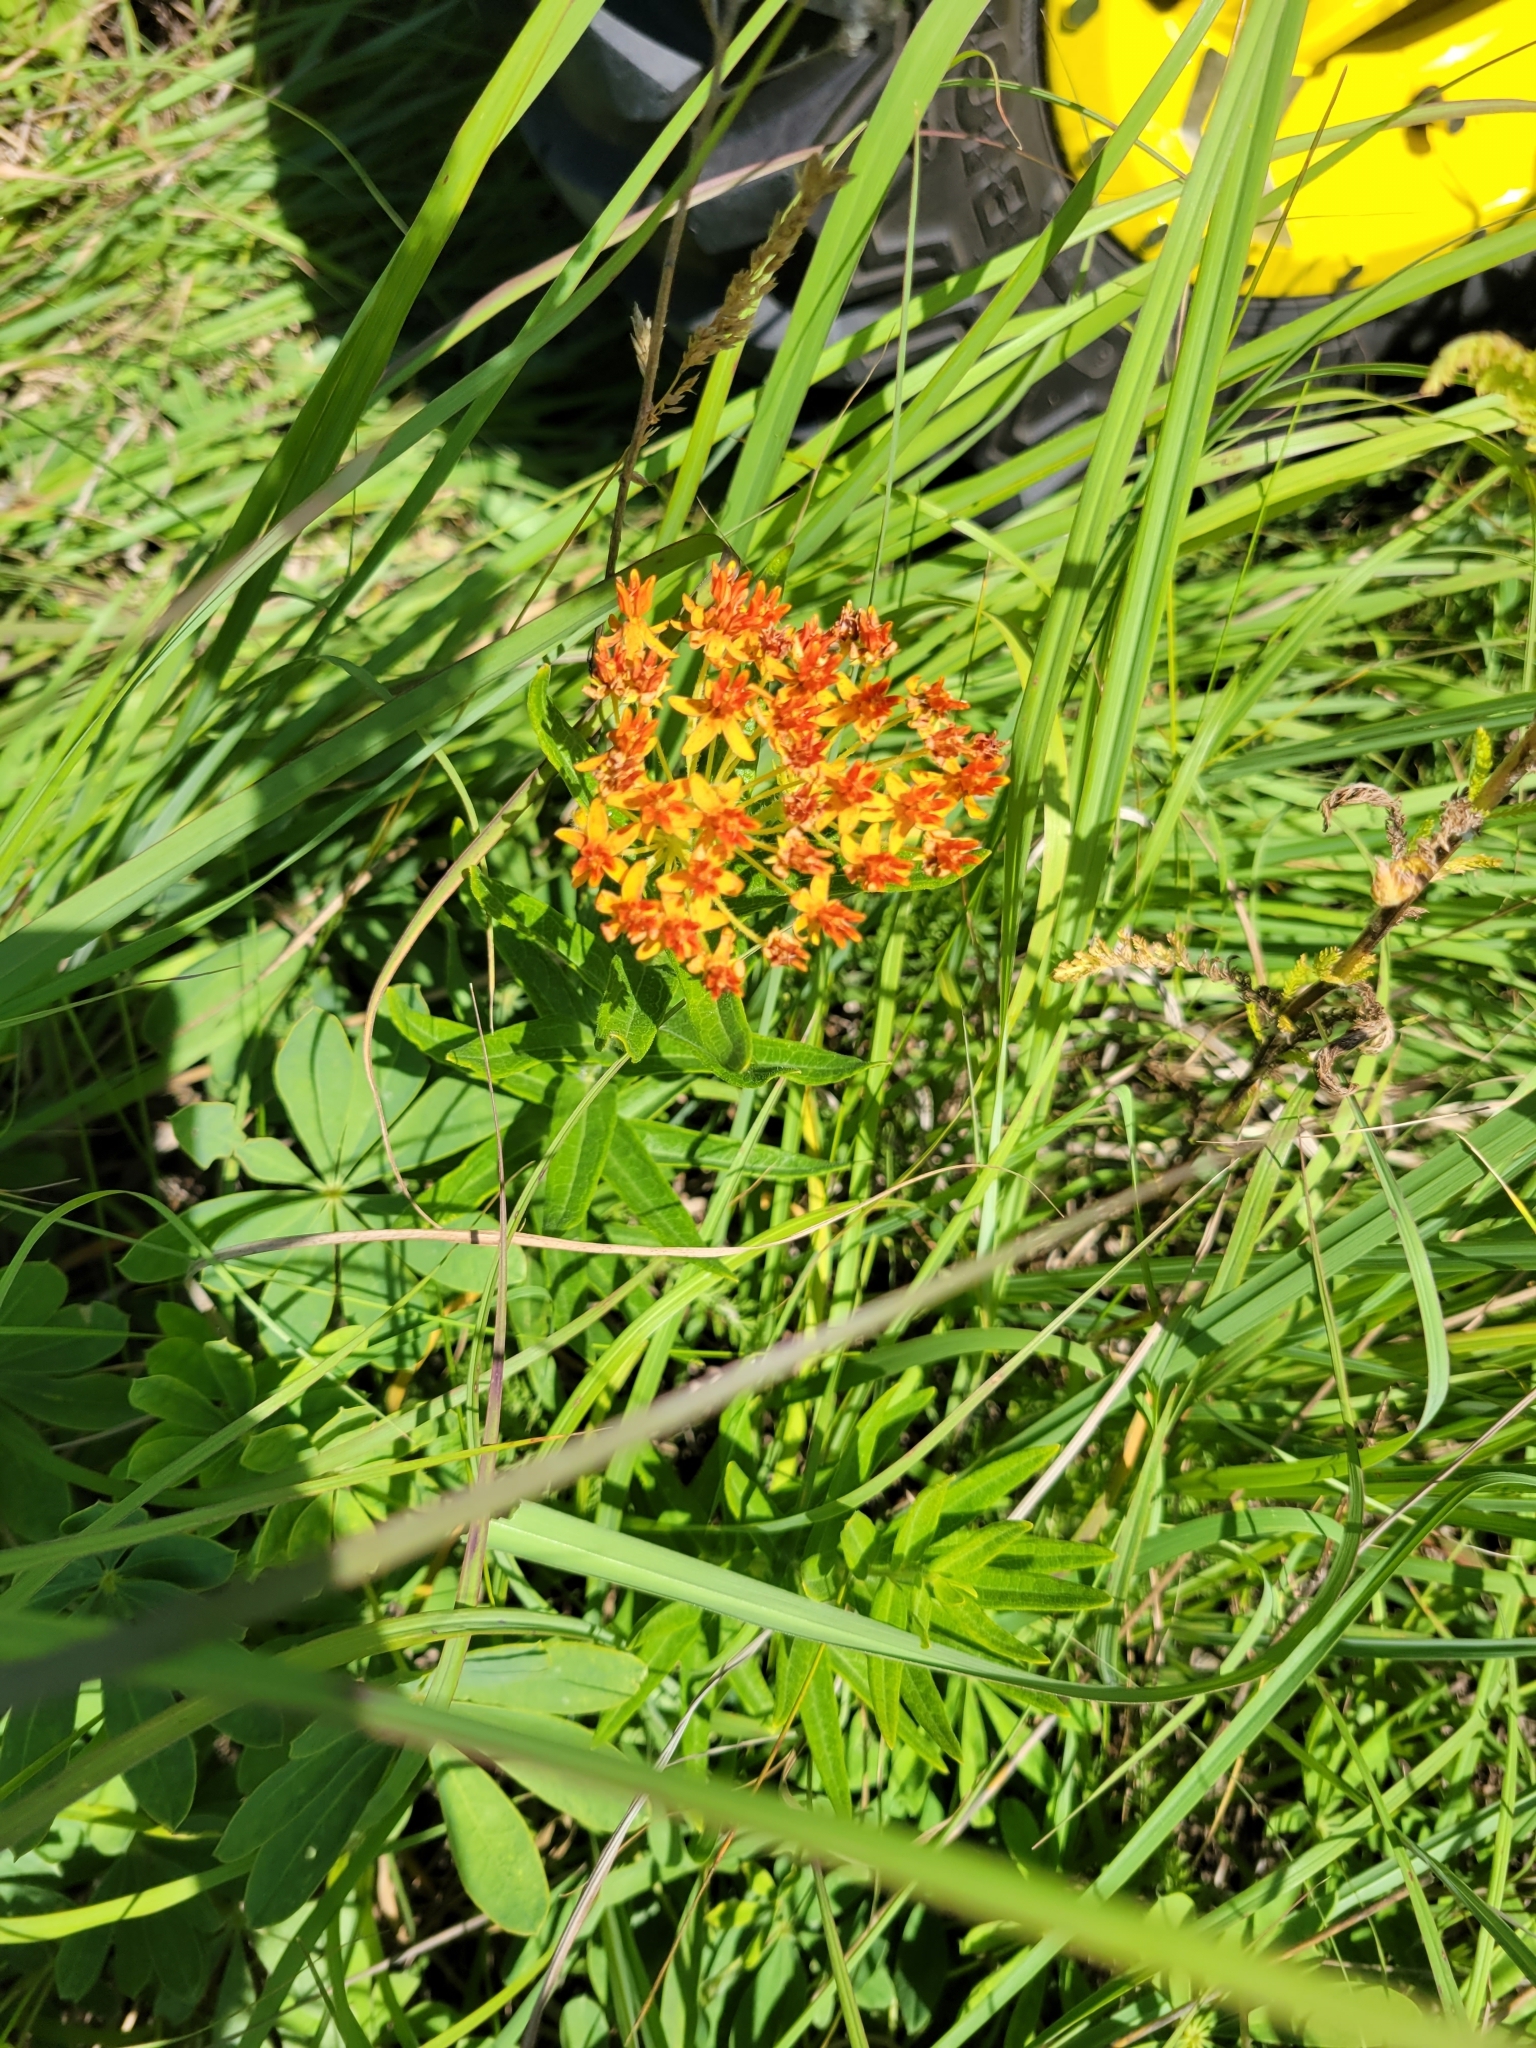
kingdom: Plantae
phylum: Tracheophyta
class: Magnoliopsida
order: Gentianales
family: Apocynaceae
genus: Asclepias
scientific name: Asclepias tuberosa
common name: Butterfly milkweed
